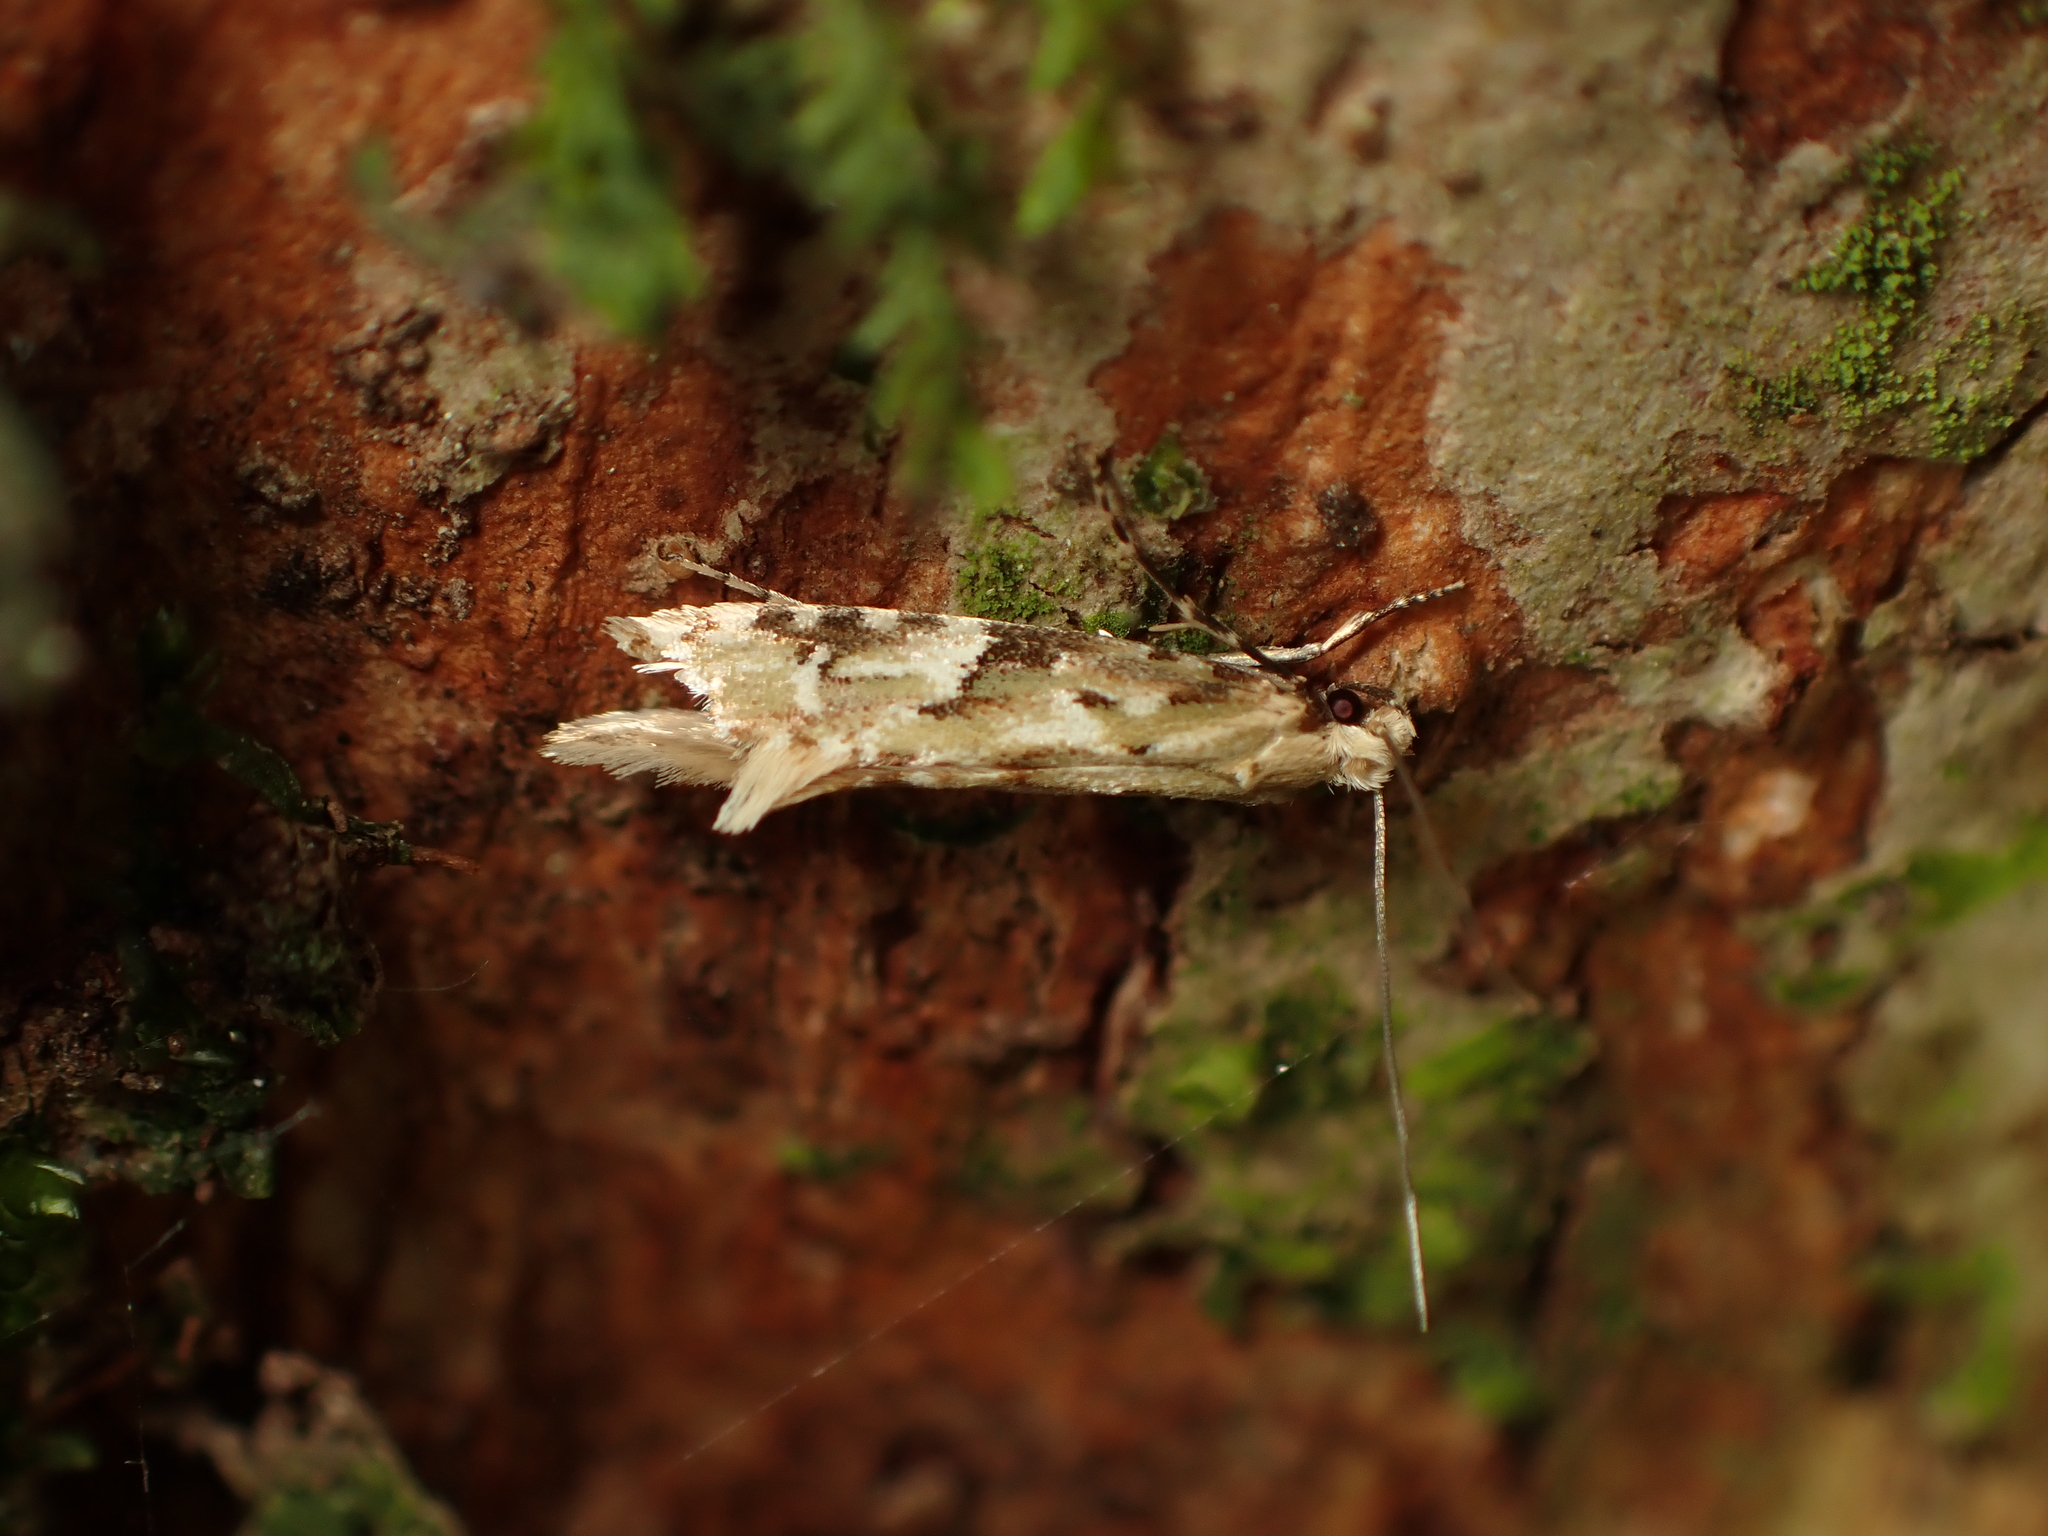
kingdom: Animalia
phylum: Arthropoda
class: Insecta
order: Lepidoptera
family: Tineidae
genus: Crypsitricha
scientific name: Crypsitricha mesotypa
